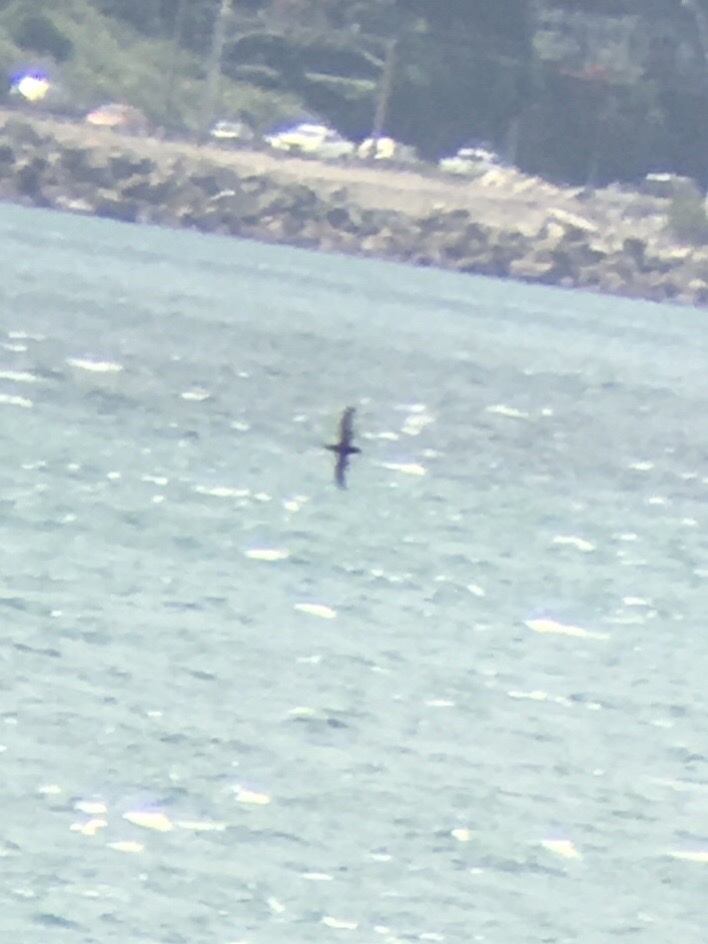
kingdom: Animalia
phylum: Chordata
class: Aves
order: Procellariiformes
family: Procellariidae
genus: Puffinus
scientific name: Puffinus gavia
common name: Fluttering shearwater
